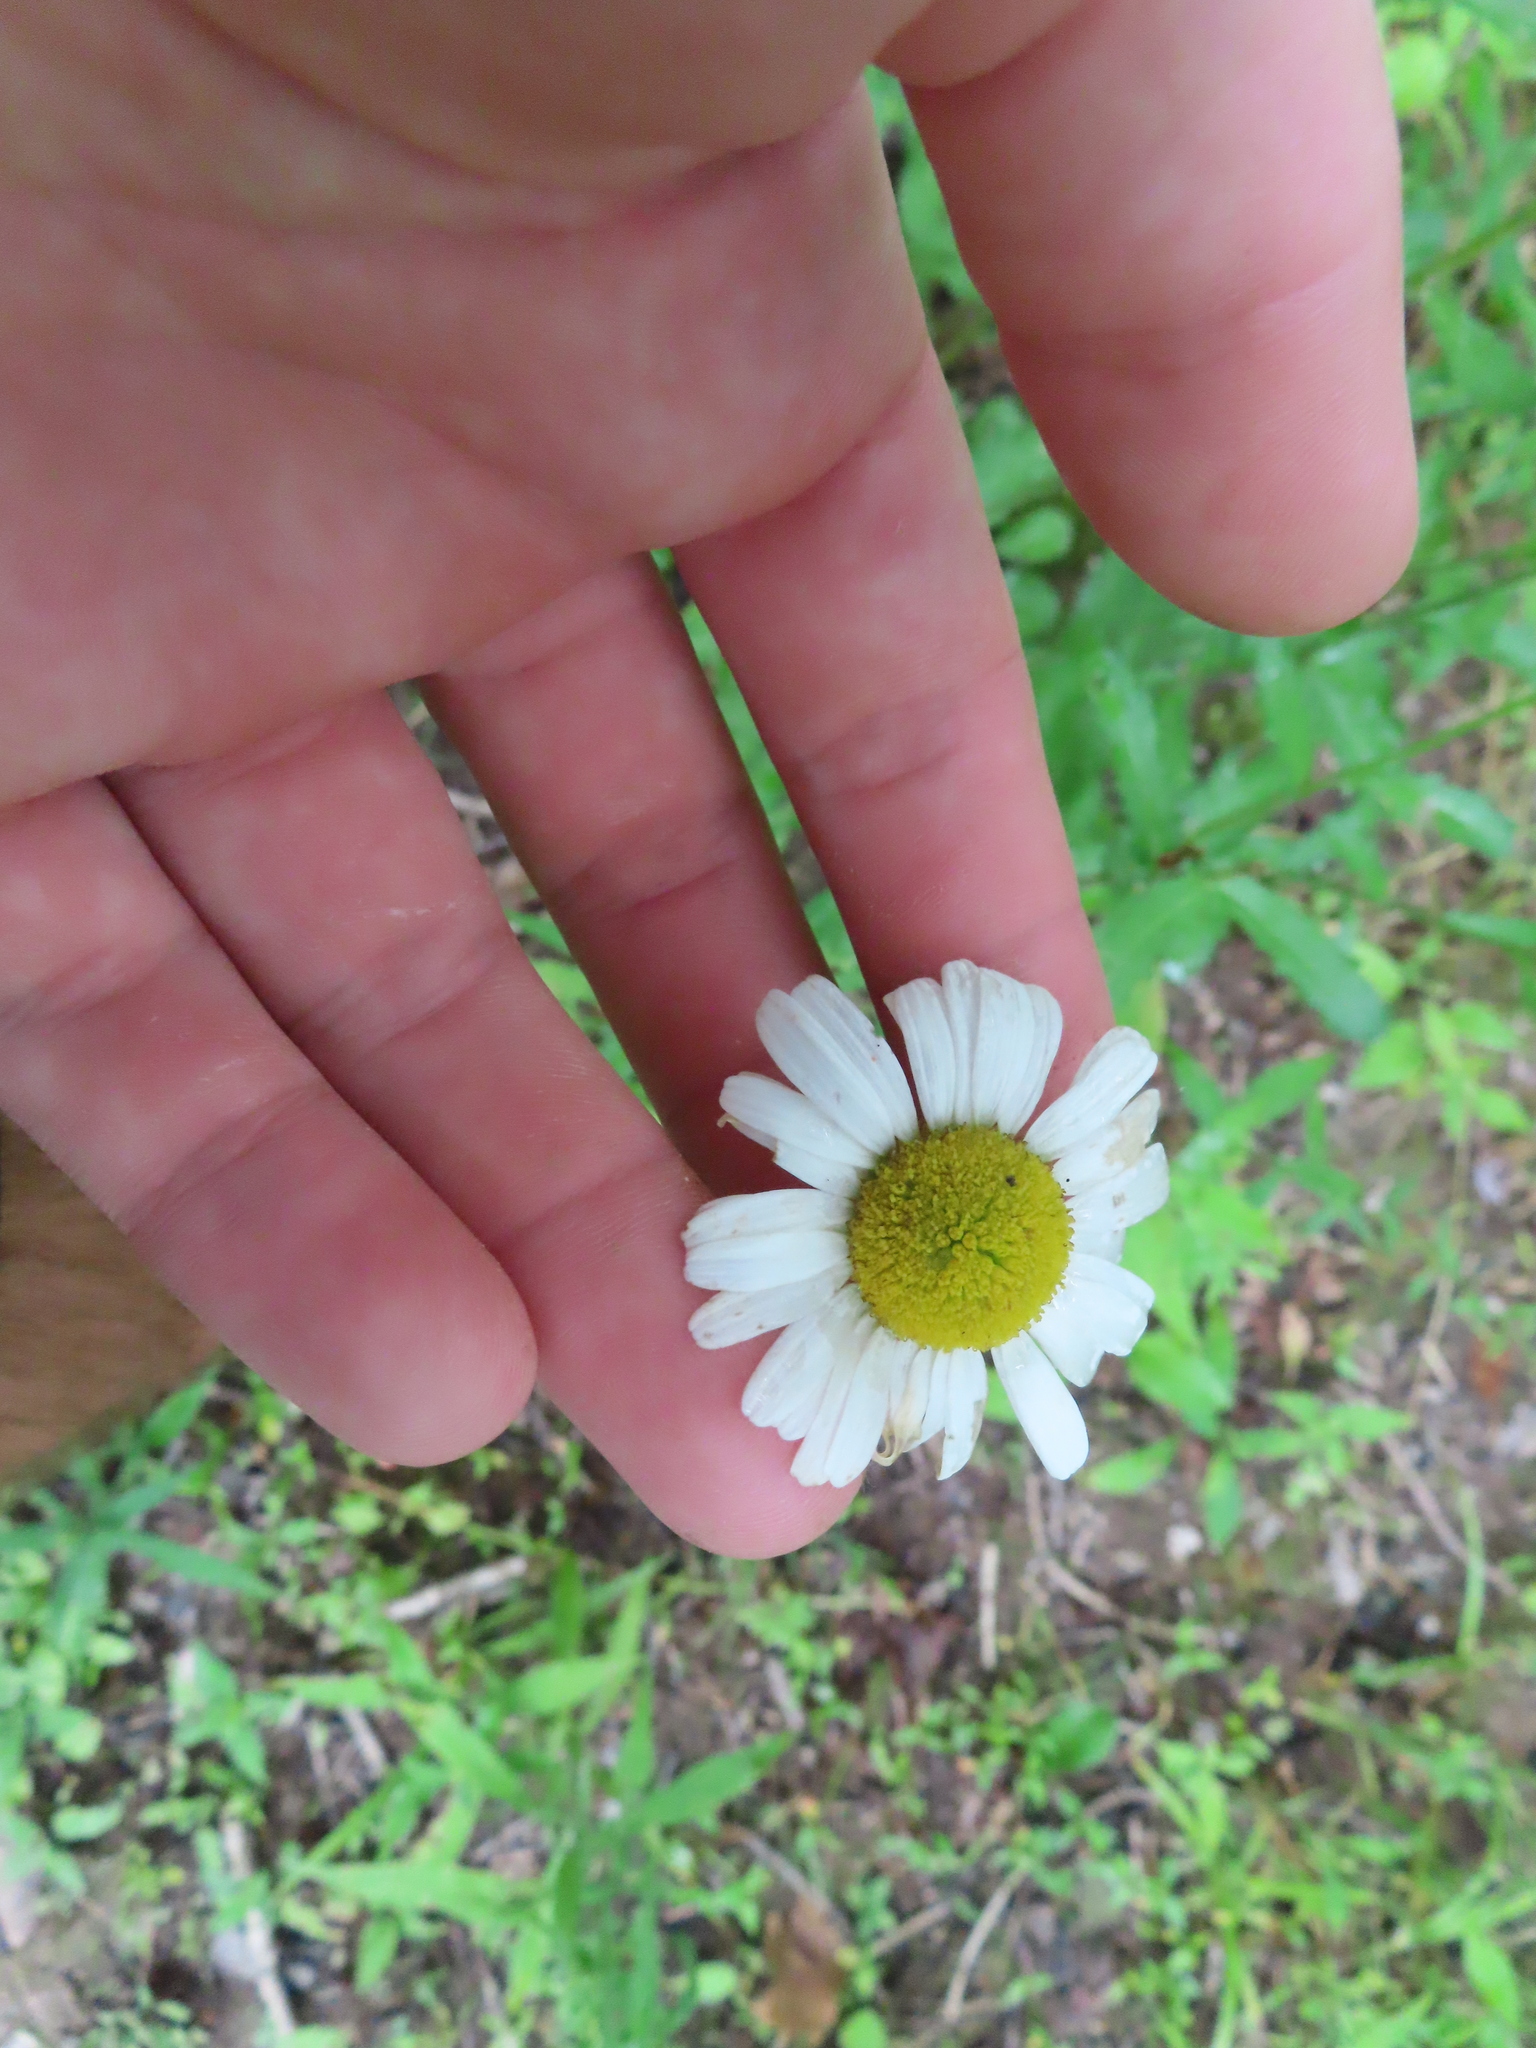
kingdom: Plantae
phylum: Tracheophyta
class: Magnoliopsida
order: Asterales
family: Asteraceae
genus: Leucanthemum
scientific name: Leucanthemum vulgare
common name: Oxeye daisy
